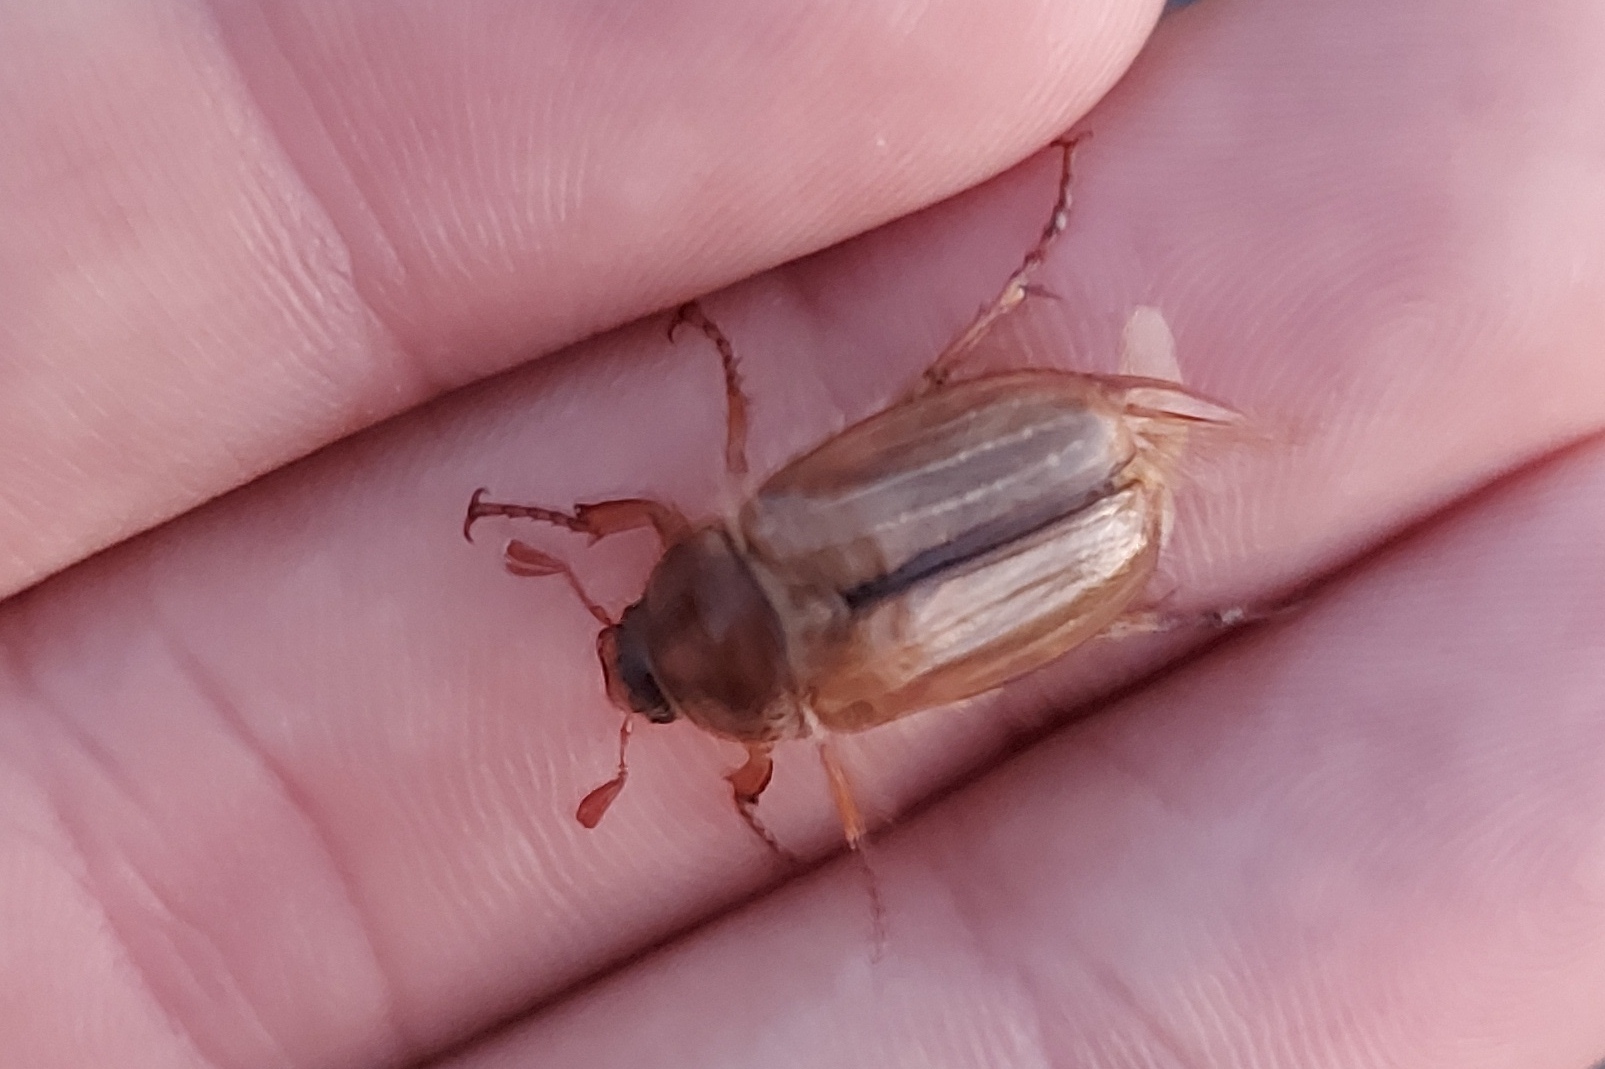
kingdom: Animalia
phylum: Arthropoda
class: Insecta
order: Coleoptera
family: Scarabaeidae
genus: Amphimallon
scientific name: Amphimallon solstitiale
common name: Summer chafer
